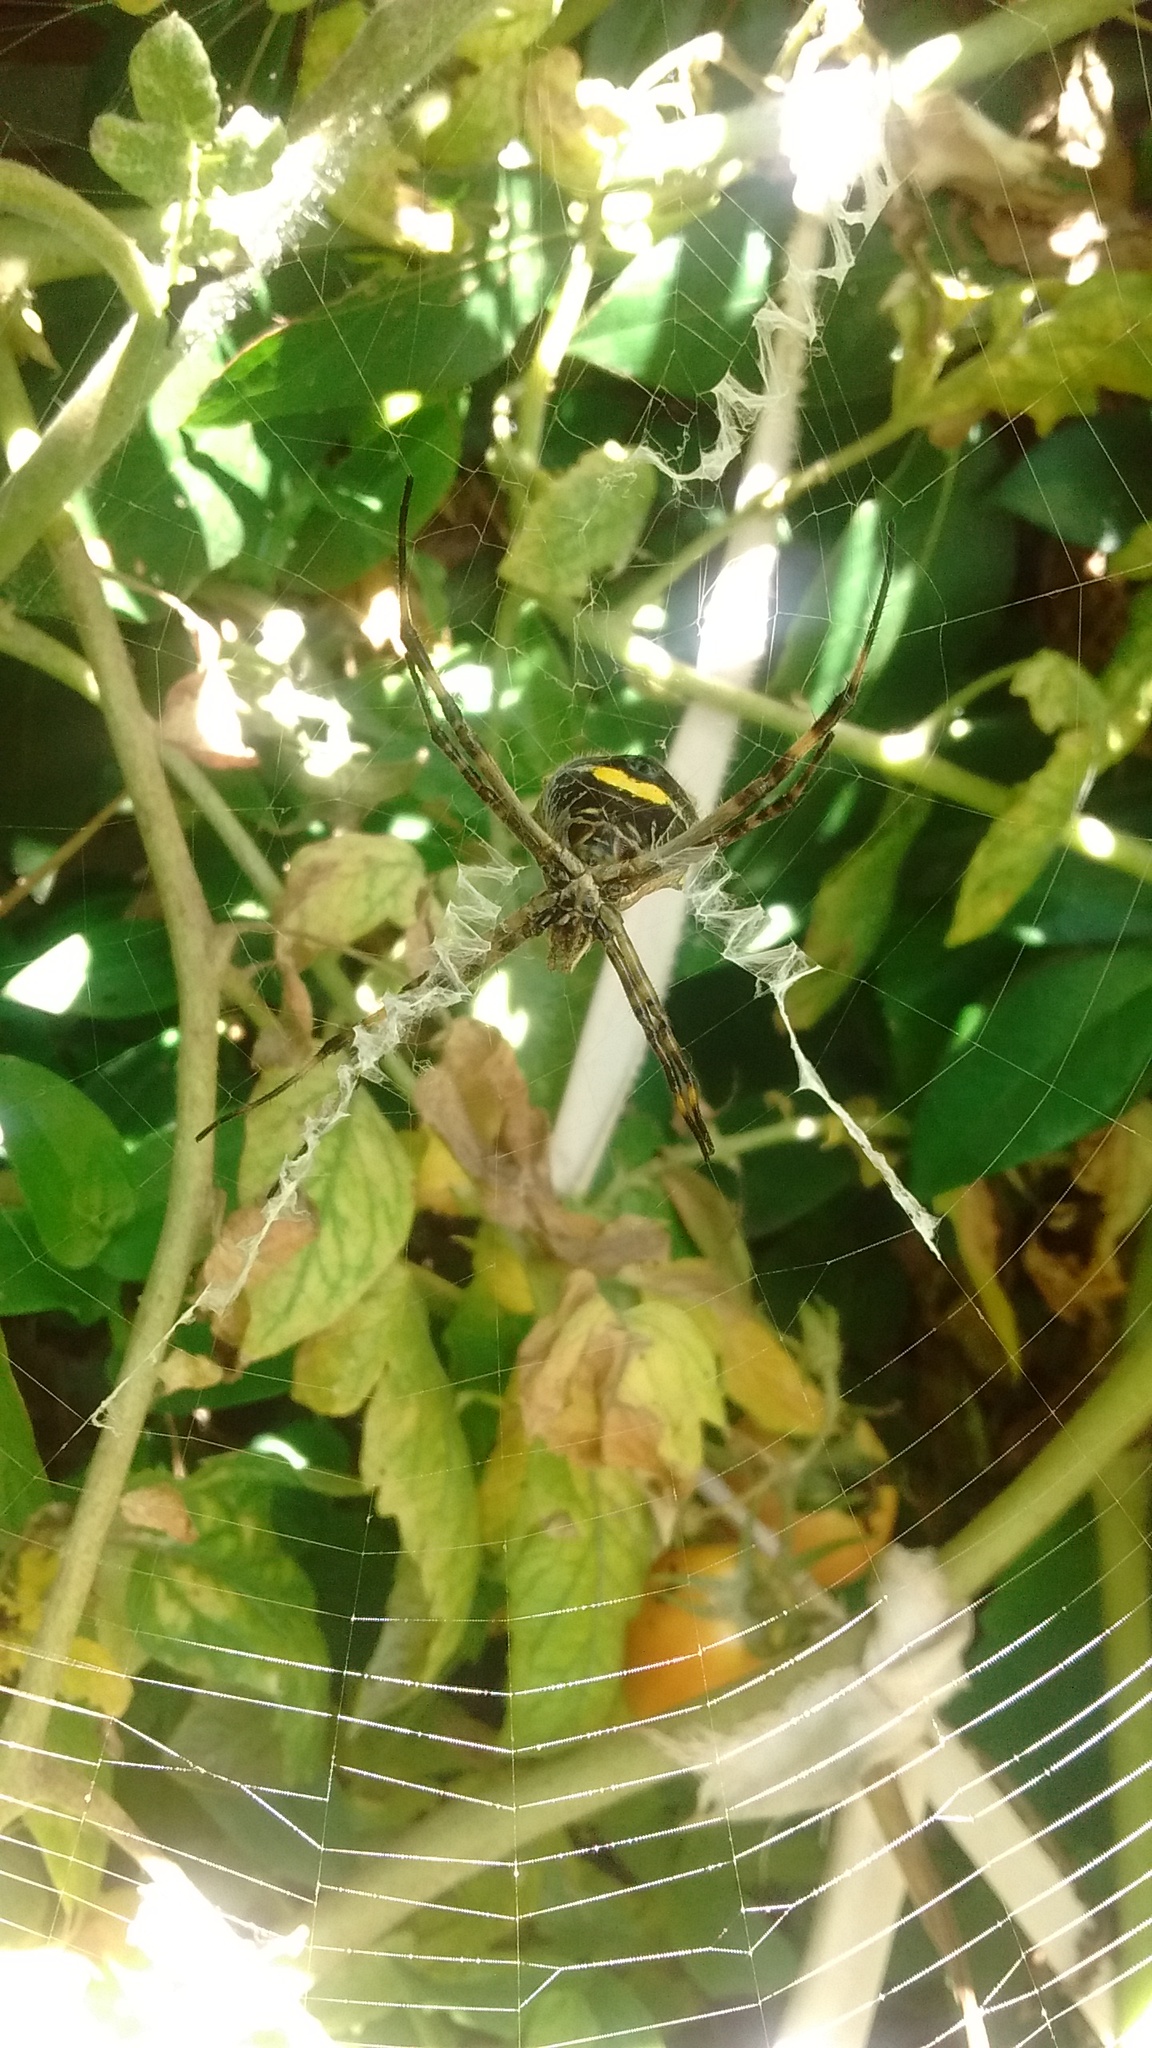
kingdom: Animalia
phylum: Arthropoda
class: Arachnida
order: Araneae
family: Araneidae
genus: Argiope
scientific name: Argiope argentata
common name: Orb weavers
